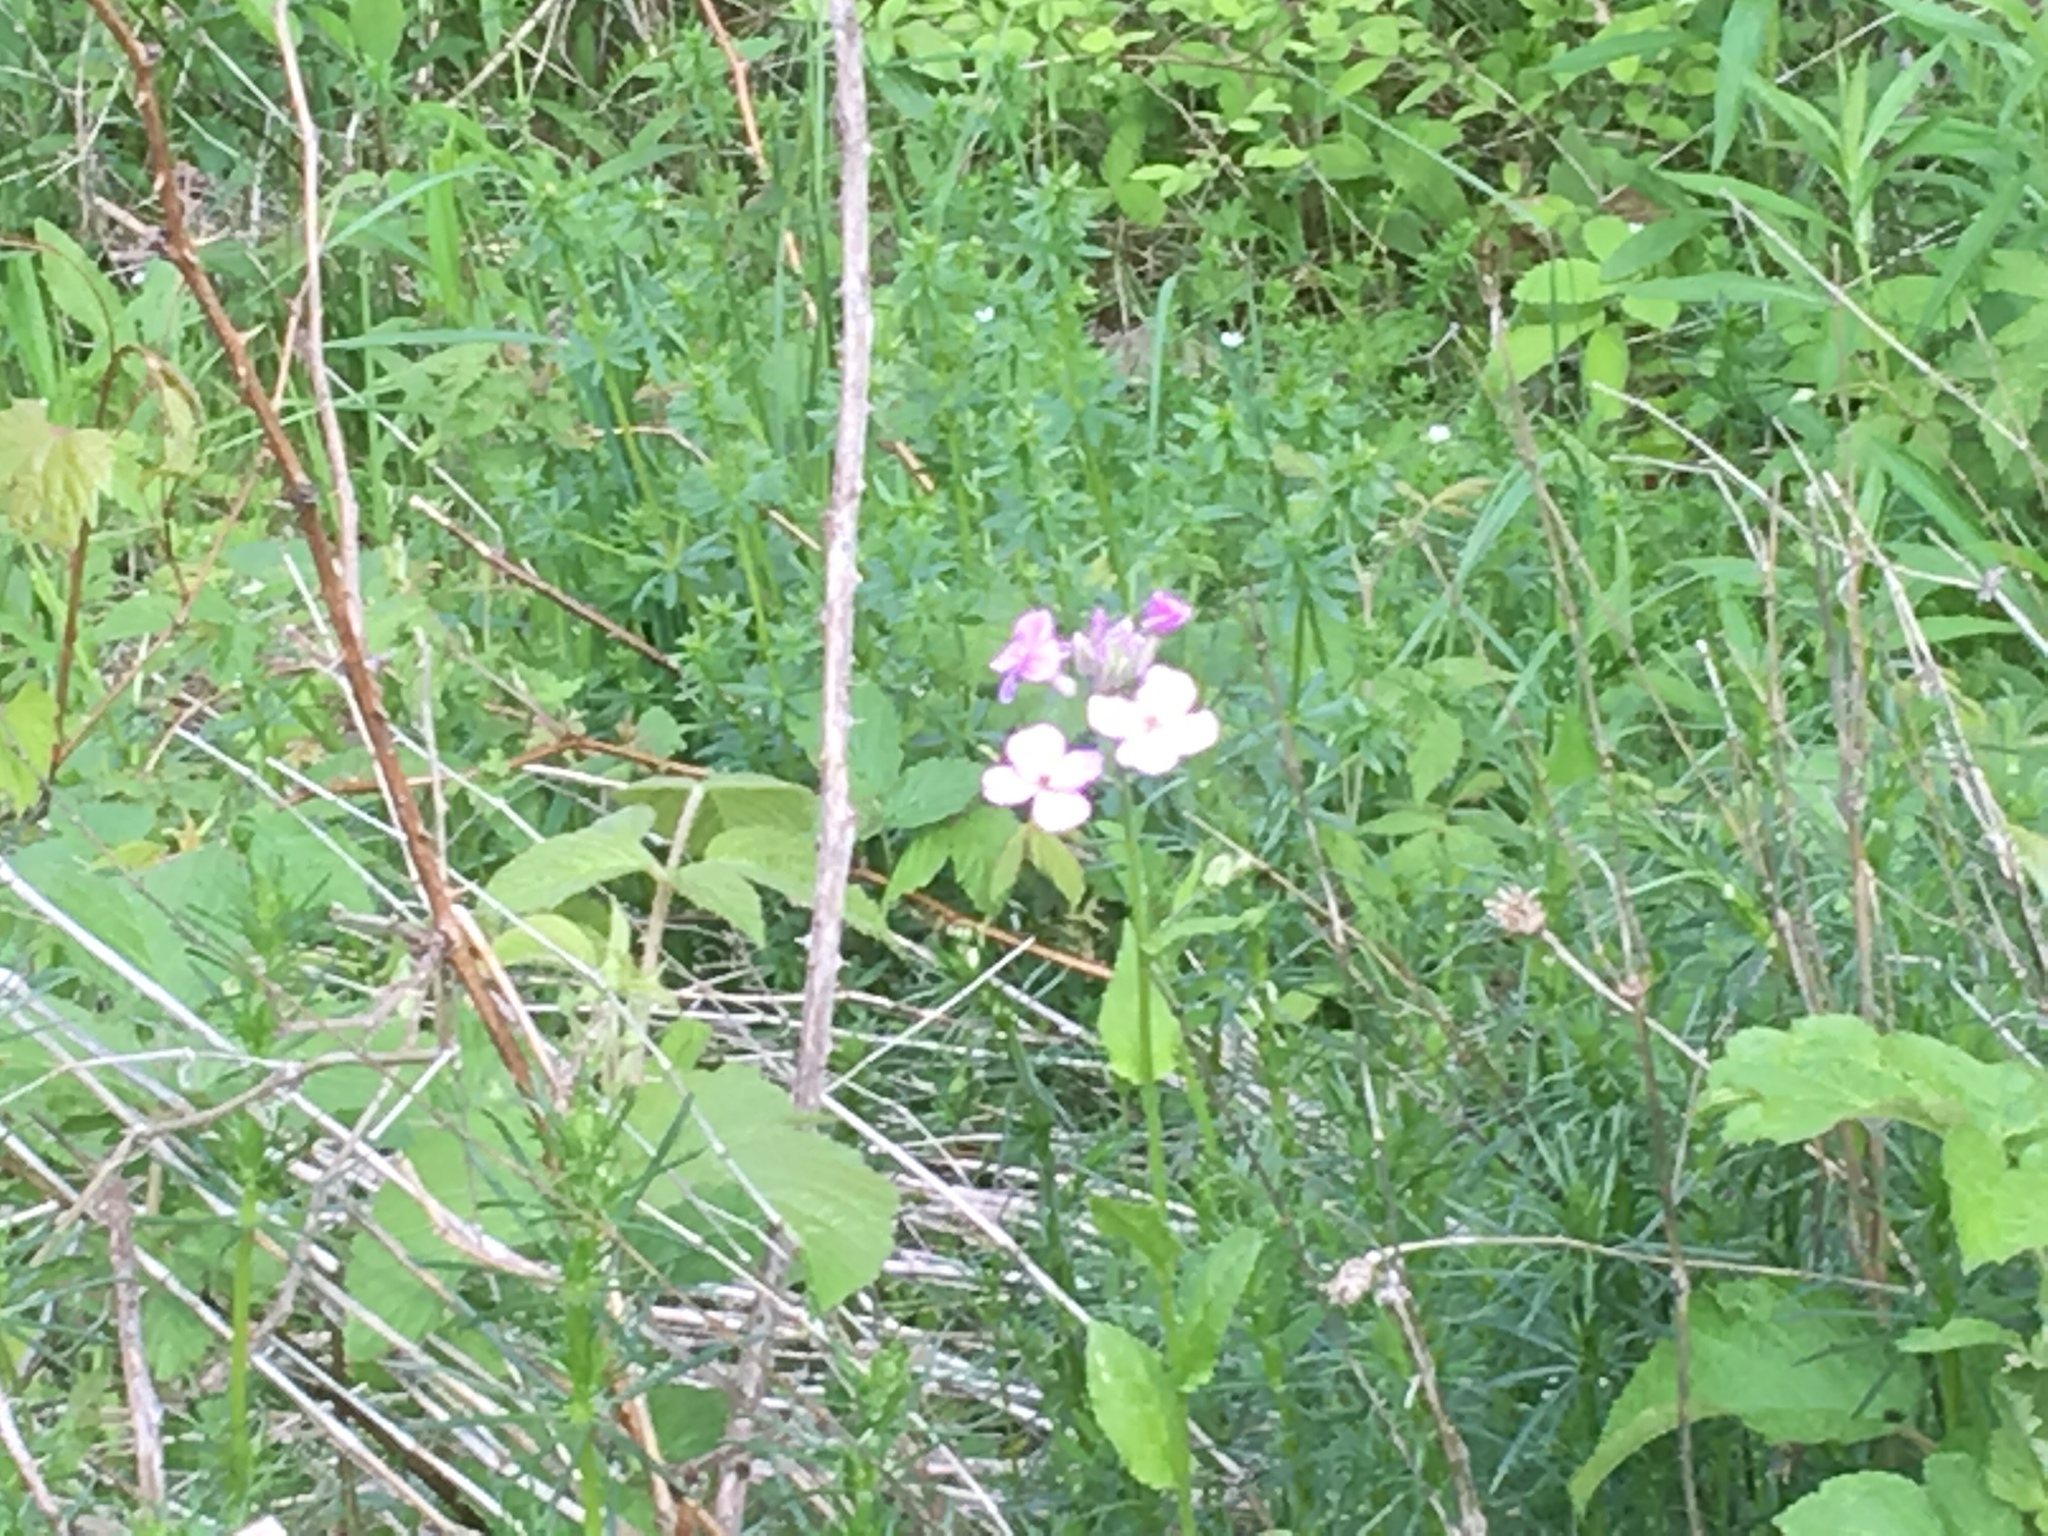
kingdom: Plantae
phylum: Tracheophyta
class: Magnoliopsida
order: Brassicales
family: Brassicaceae
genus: Hesperis
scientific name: Hesperis matronalis
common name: Dame's-violet
